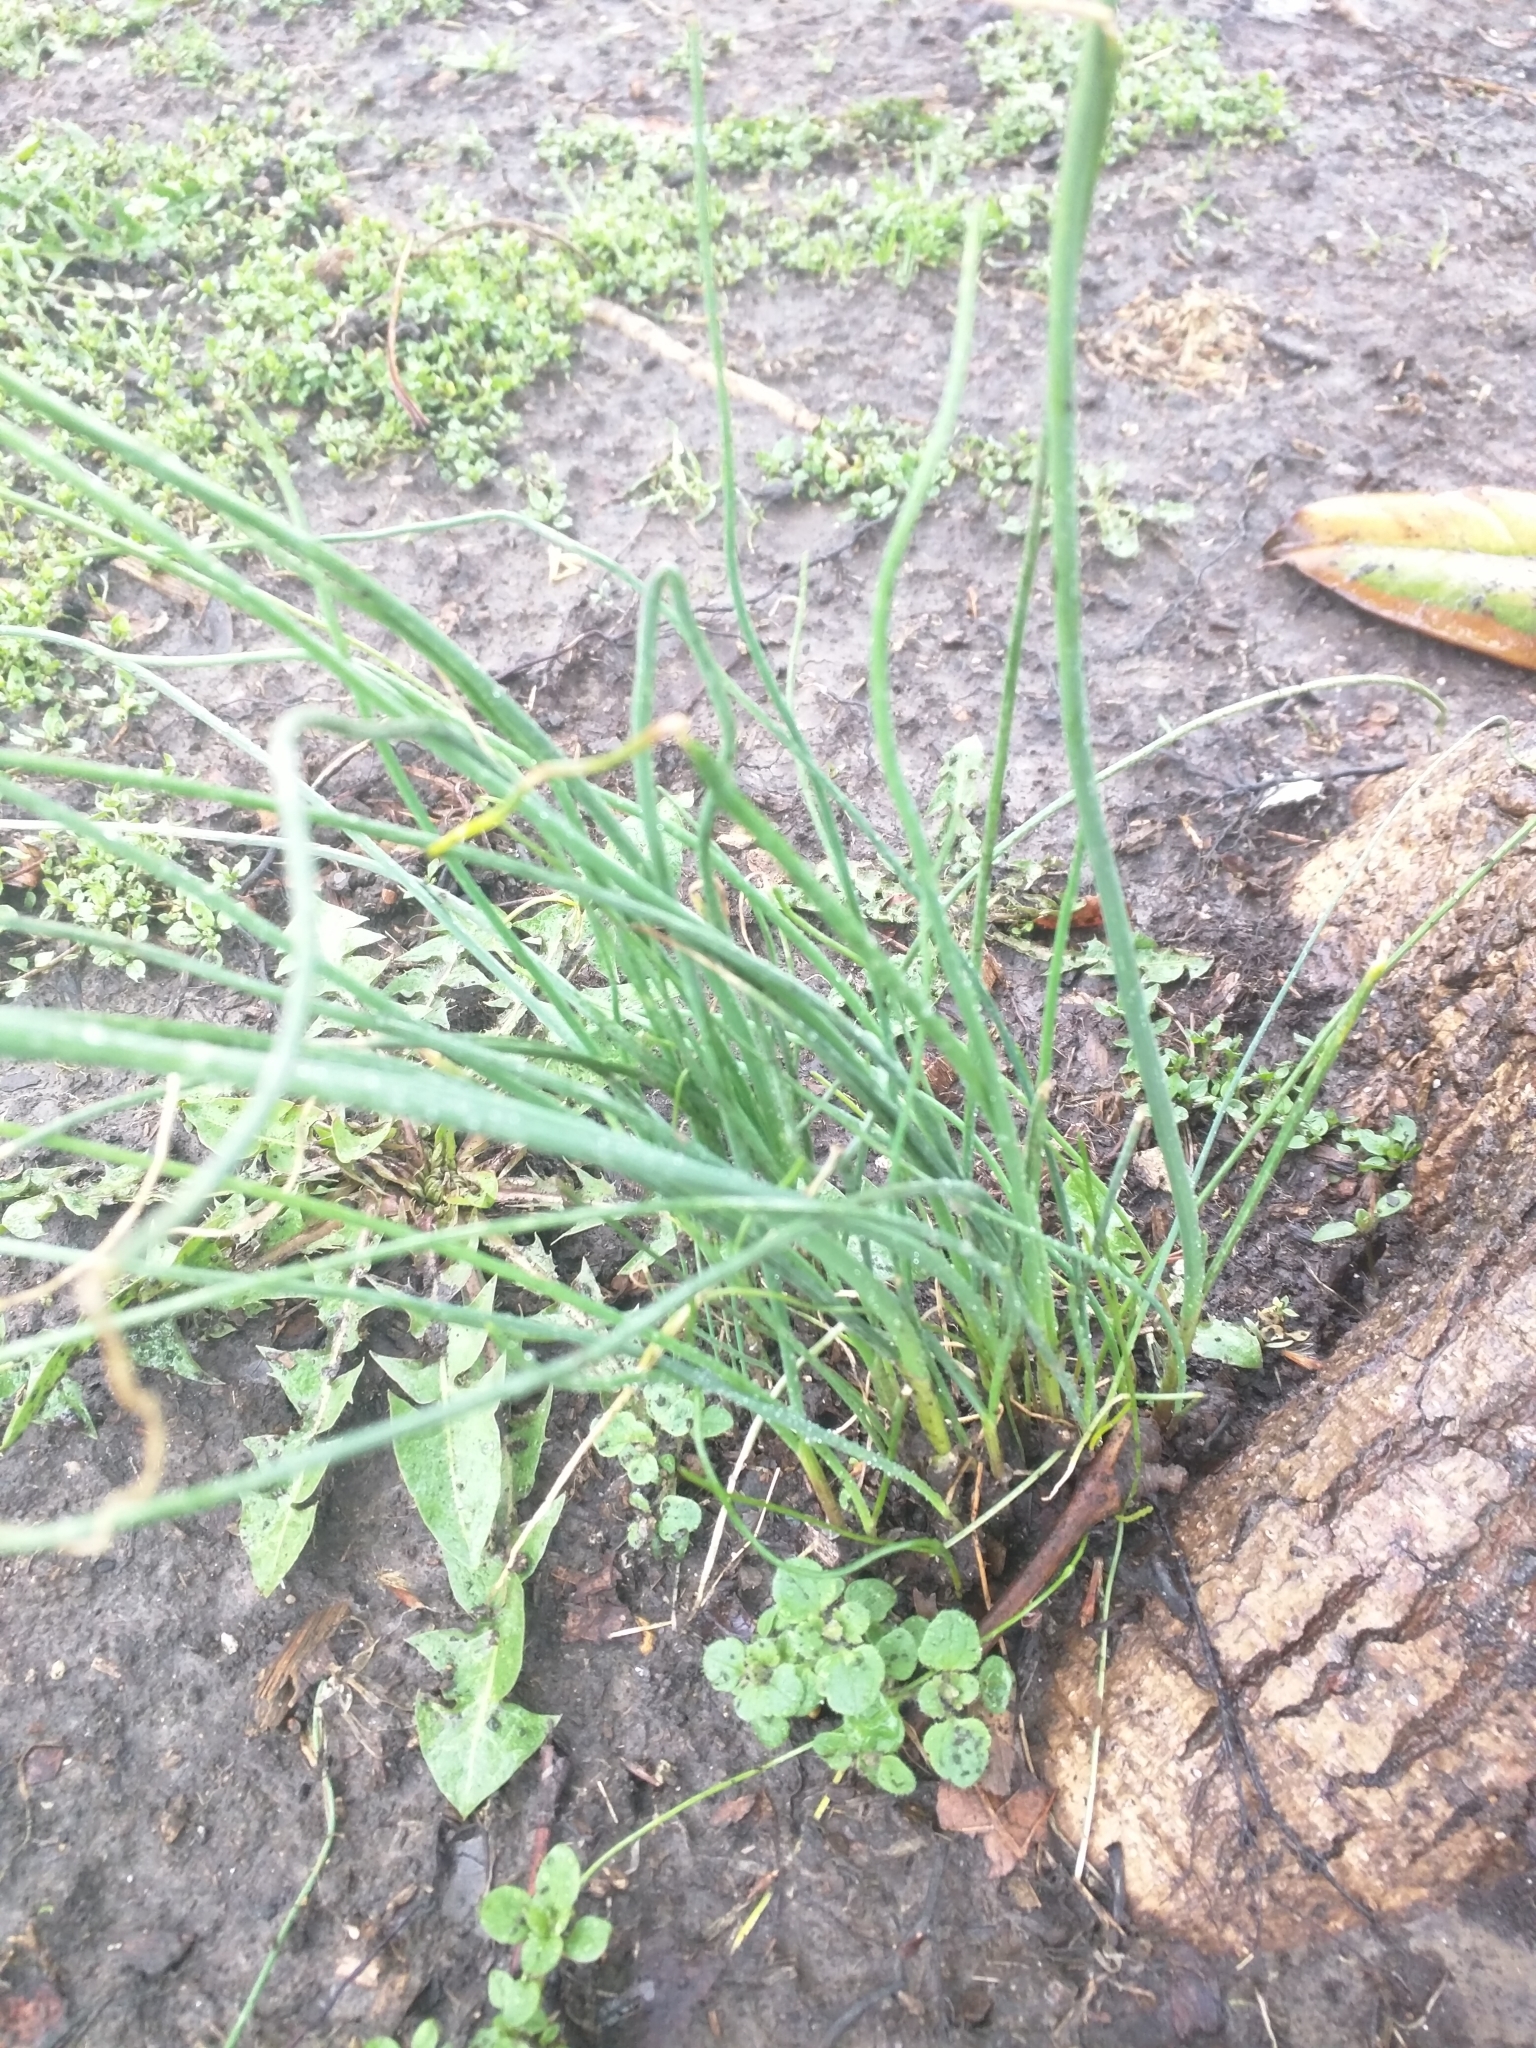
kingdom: Plantae
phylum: Tracheophyta
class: Liliopsida
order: Asparagales
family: Amaryllidaceae
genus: Allium
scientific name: Allium vineale
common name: Crow garlic
